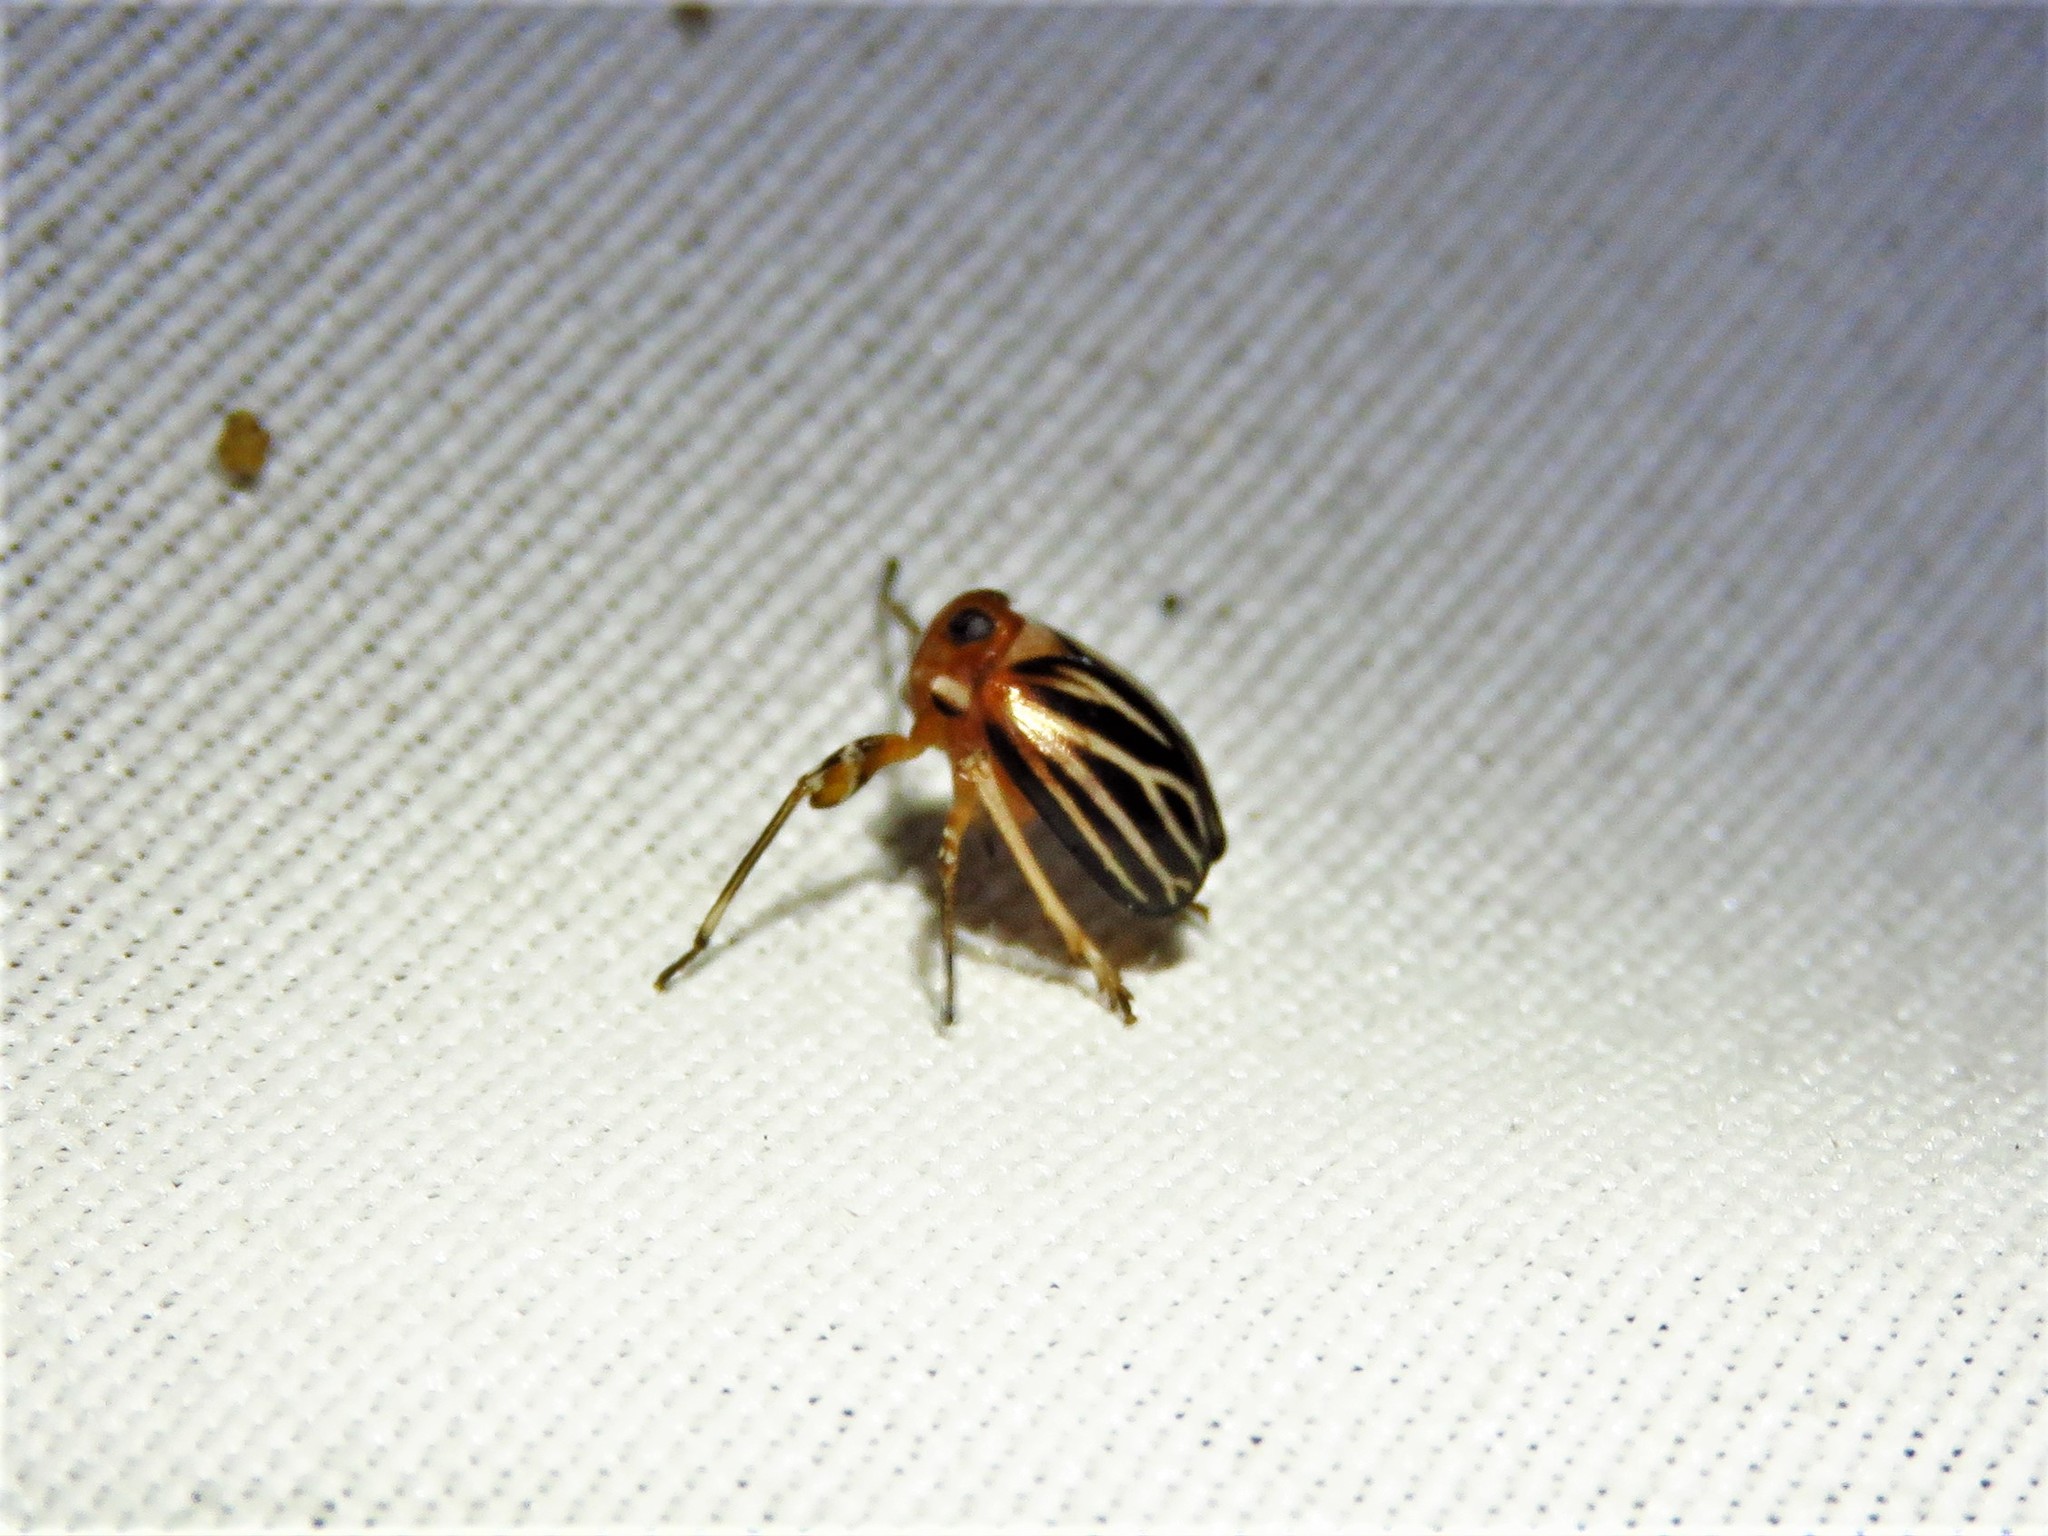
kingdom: Animalia
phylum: Arthropoda
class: Insecta
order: Hemiptera
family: Achilidae
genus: Isodaemon
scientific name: Isodaemon orontes
